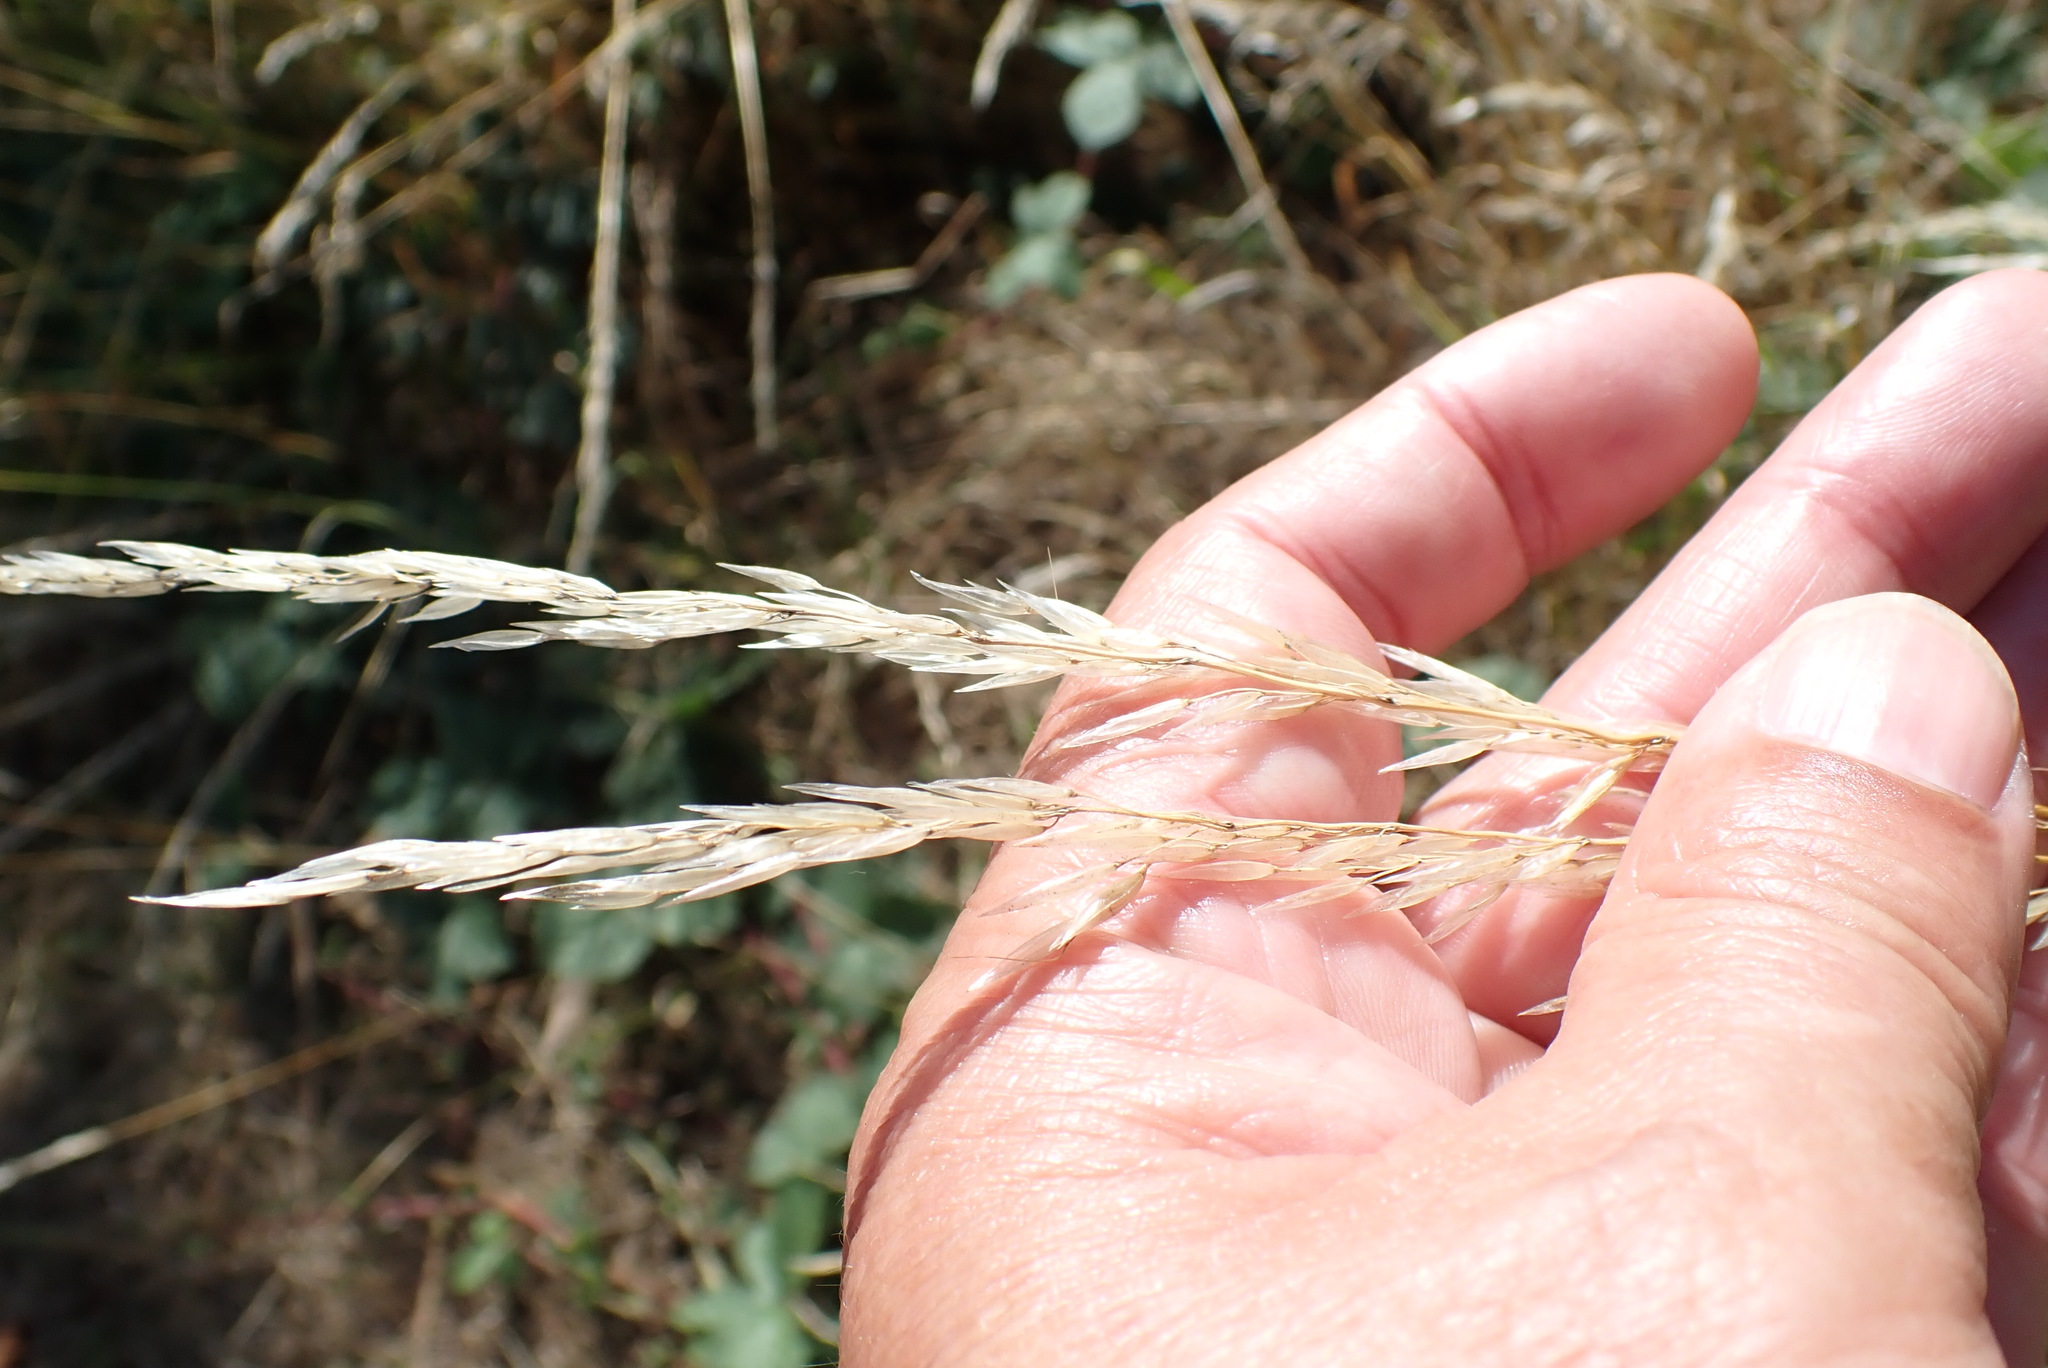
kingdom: Plantae
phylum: Tracheophyta
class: Liliopsida
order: Poales
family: Poaceae
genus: Arrhenatherum
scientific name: Arrhenatherum elatius
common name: Tall oatgrass
